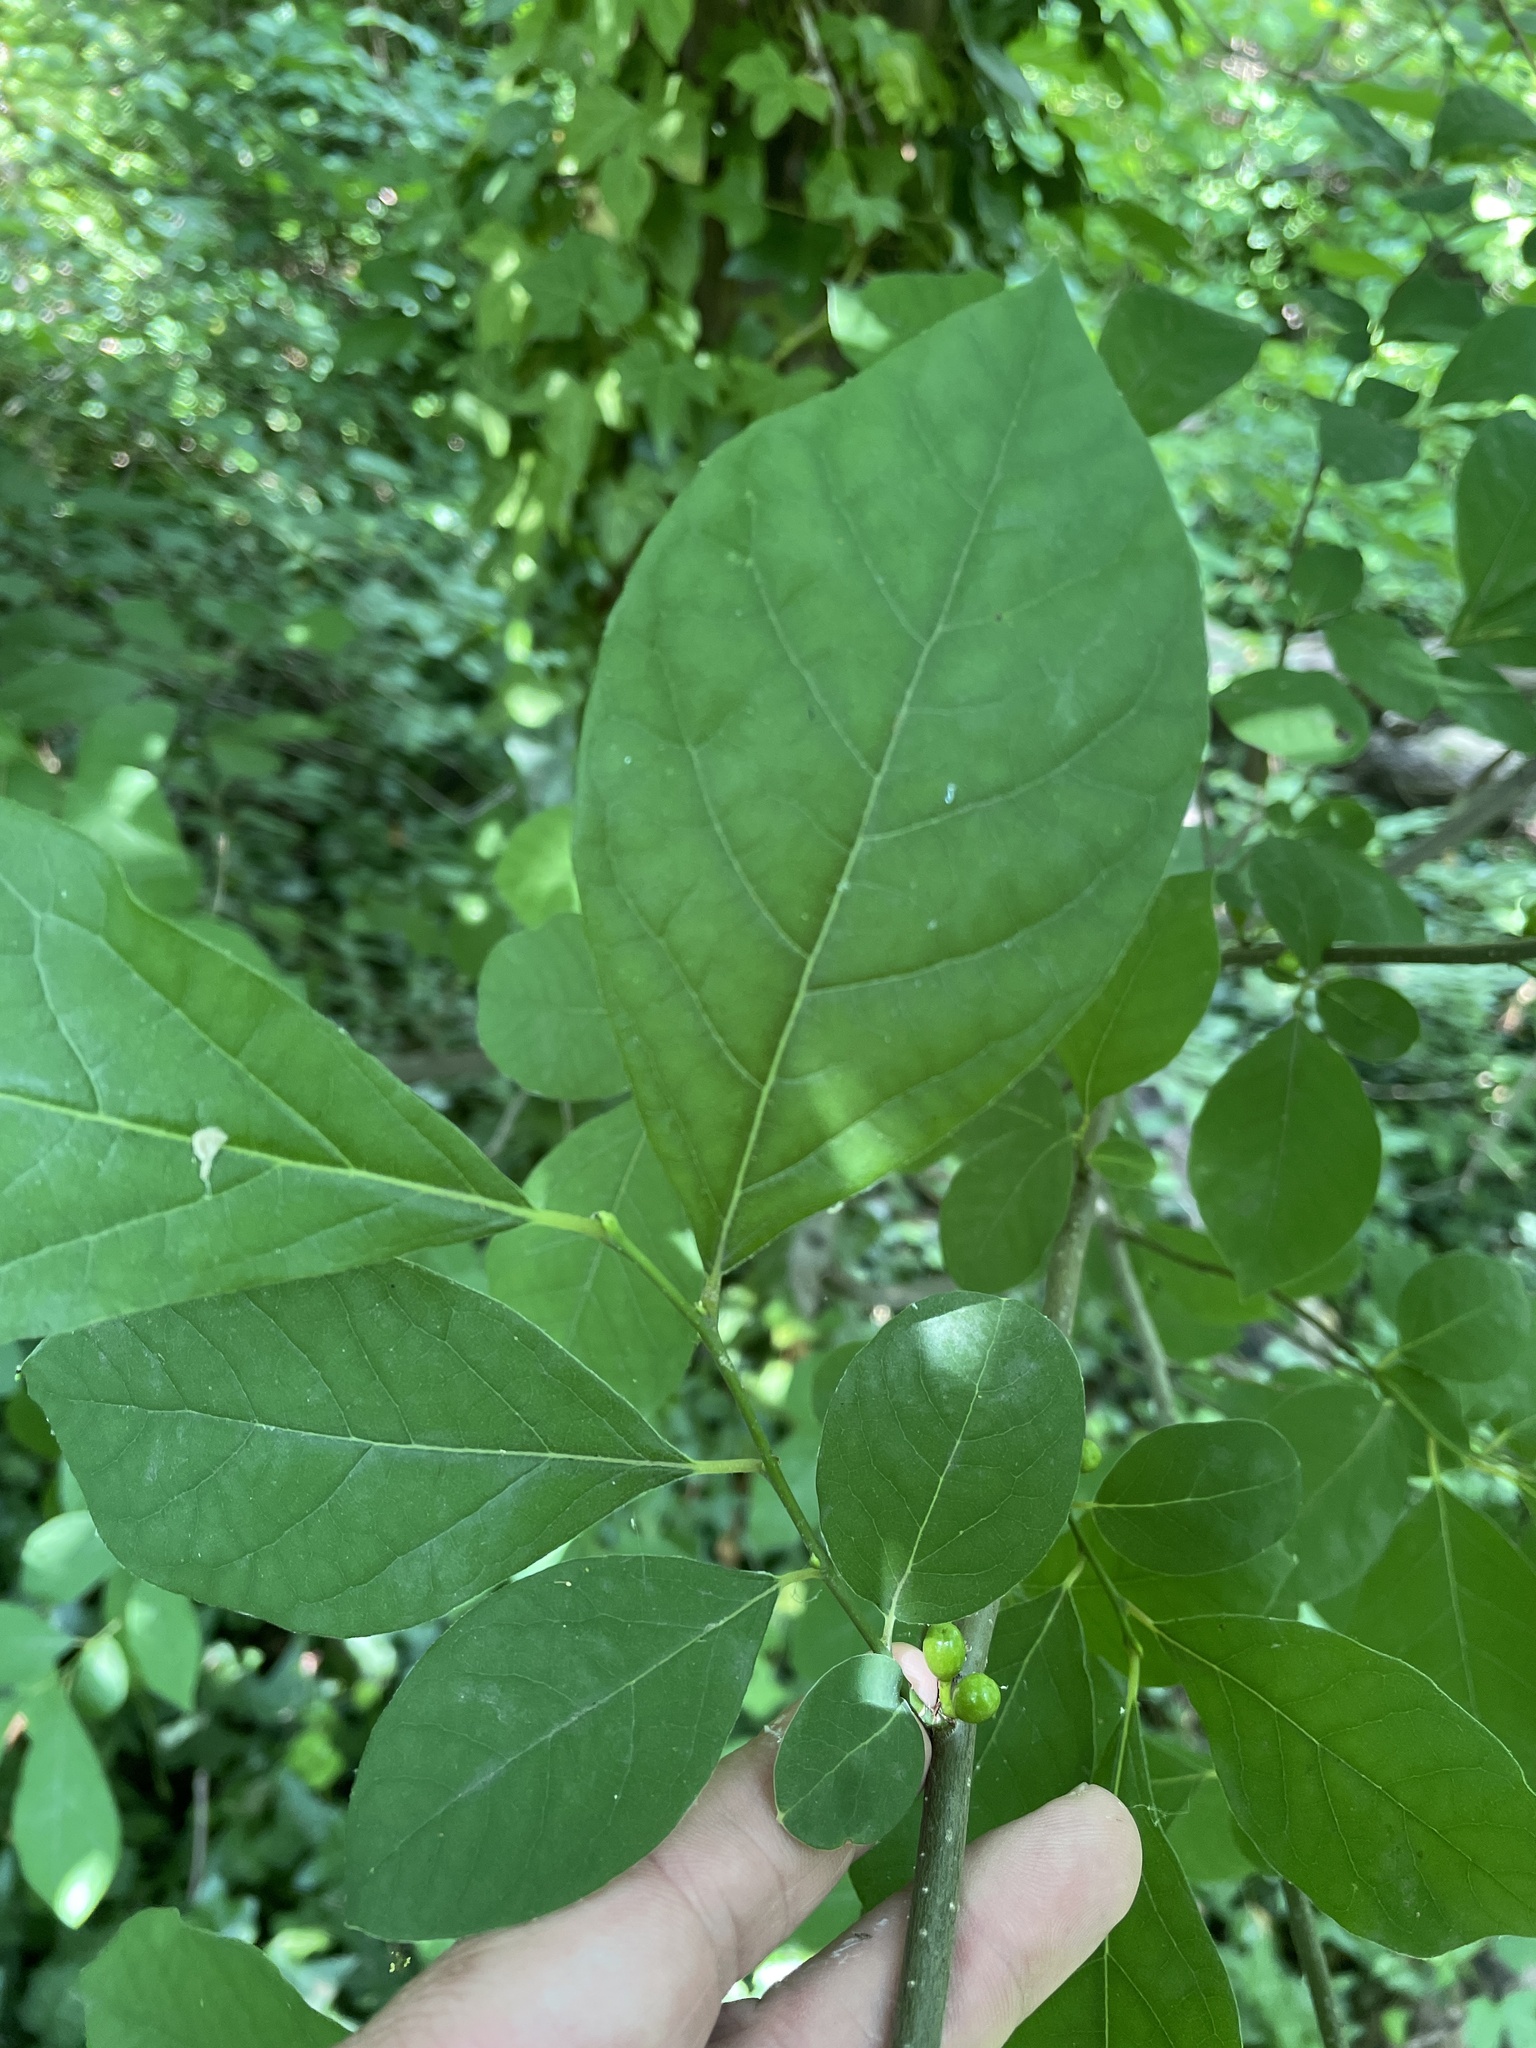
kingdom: Plantae
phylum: Tracheophyta
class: Magnoliopsida
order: Laurales
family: Lauraceae
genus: Lindera
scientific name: Lindera benzoin
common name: Spicebush
